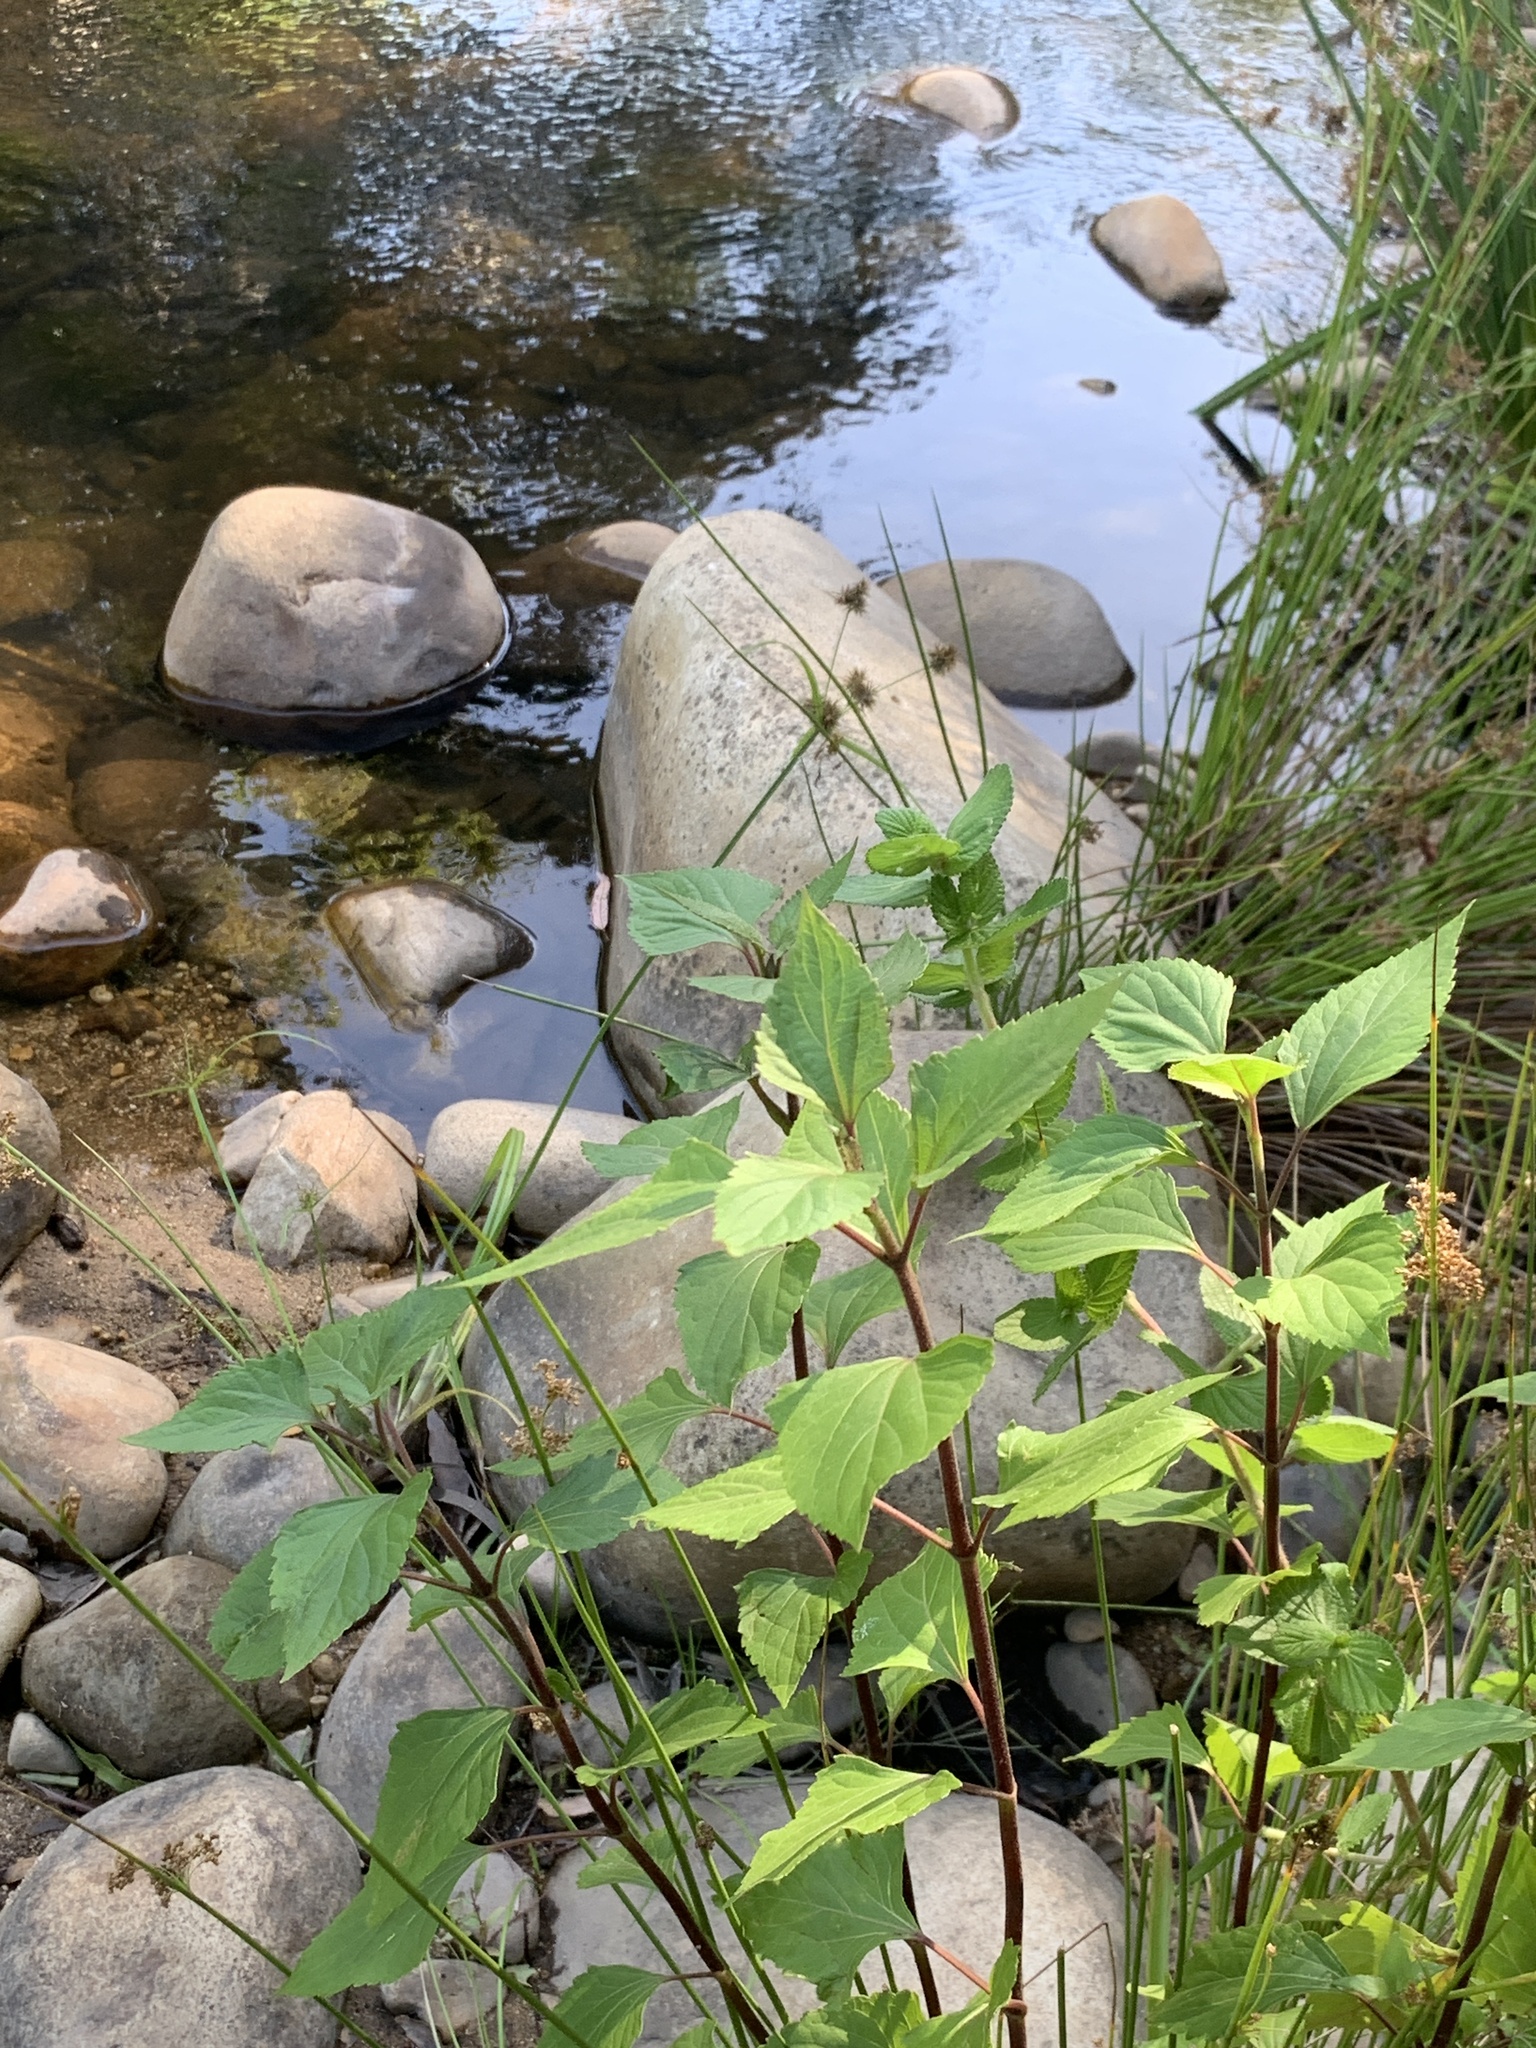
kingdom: Plantae
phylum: Tracheophyta
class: Magnoliopsida
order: Asterales
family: Asteraceae
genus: Ageratina
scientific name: Ageratina adenophora
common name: Sticky snakeroot
